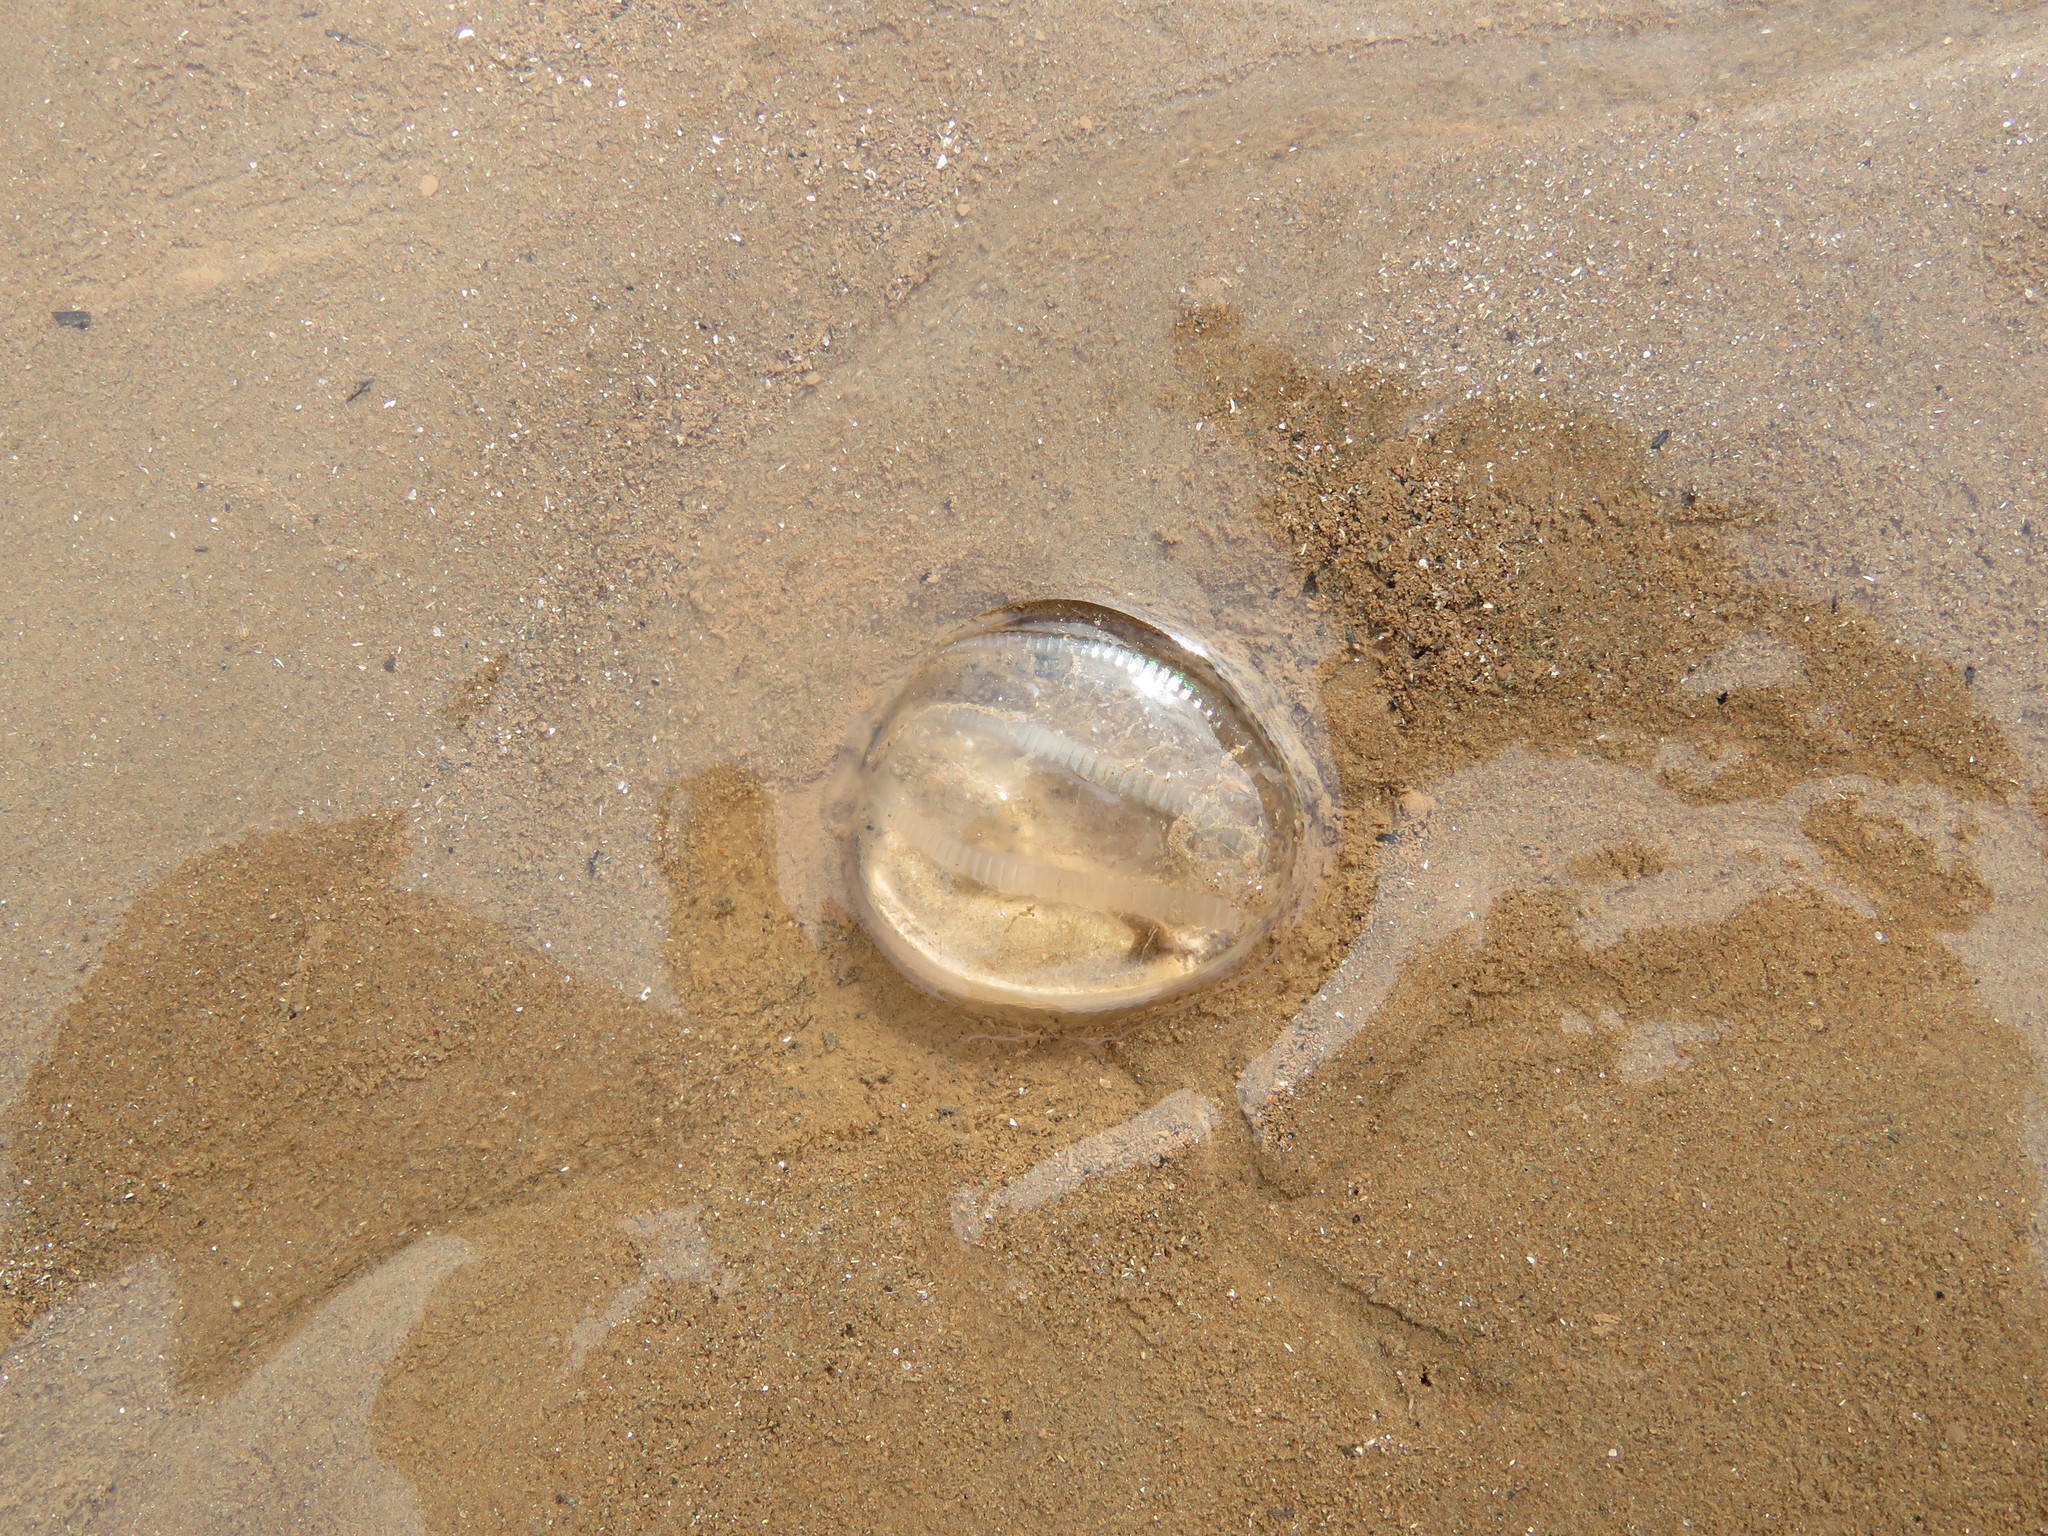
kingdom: Animalia
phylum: Ctenophora
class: Tentaculata
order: Cydippida
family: Pleurobrachiidae
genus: Pleurobrachia
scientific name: Pleurobrachia pileus
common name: Sea gooseberry
